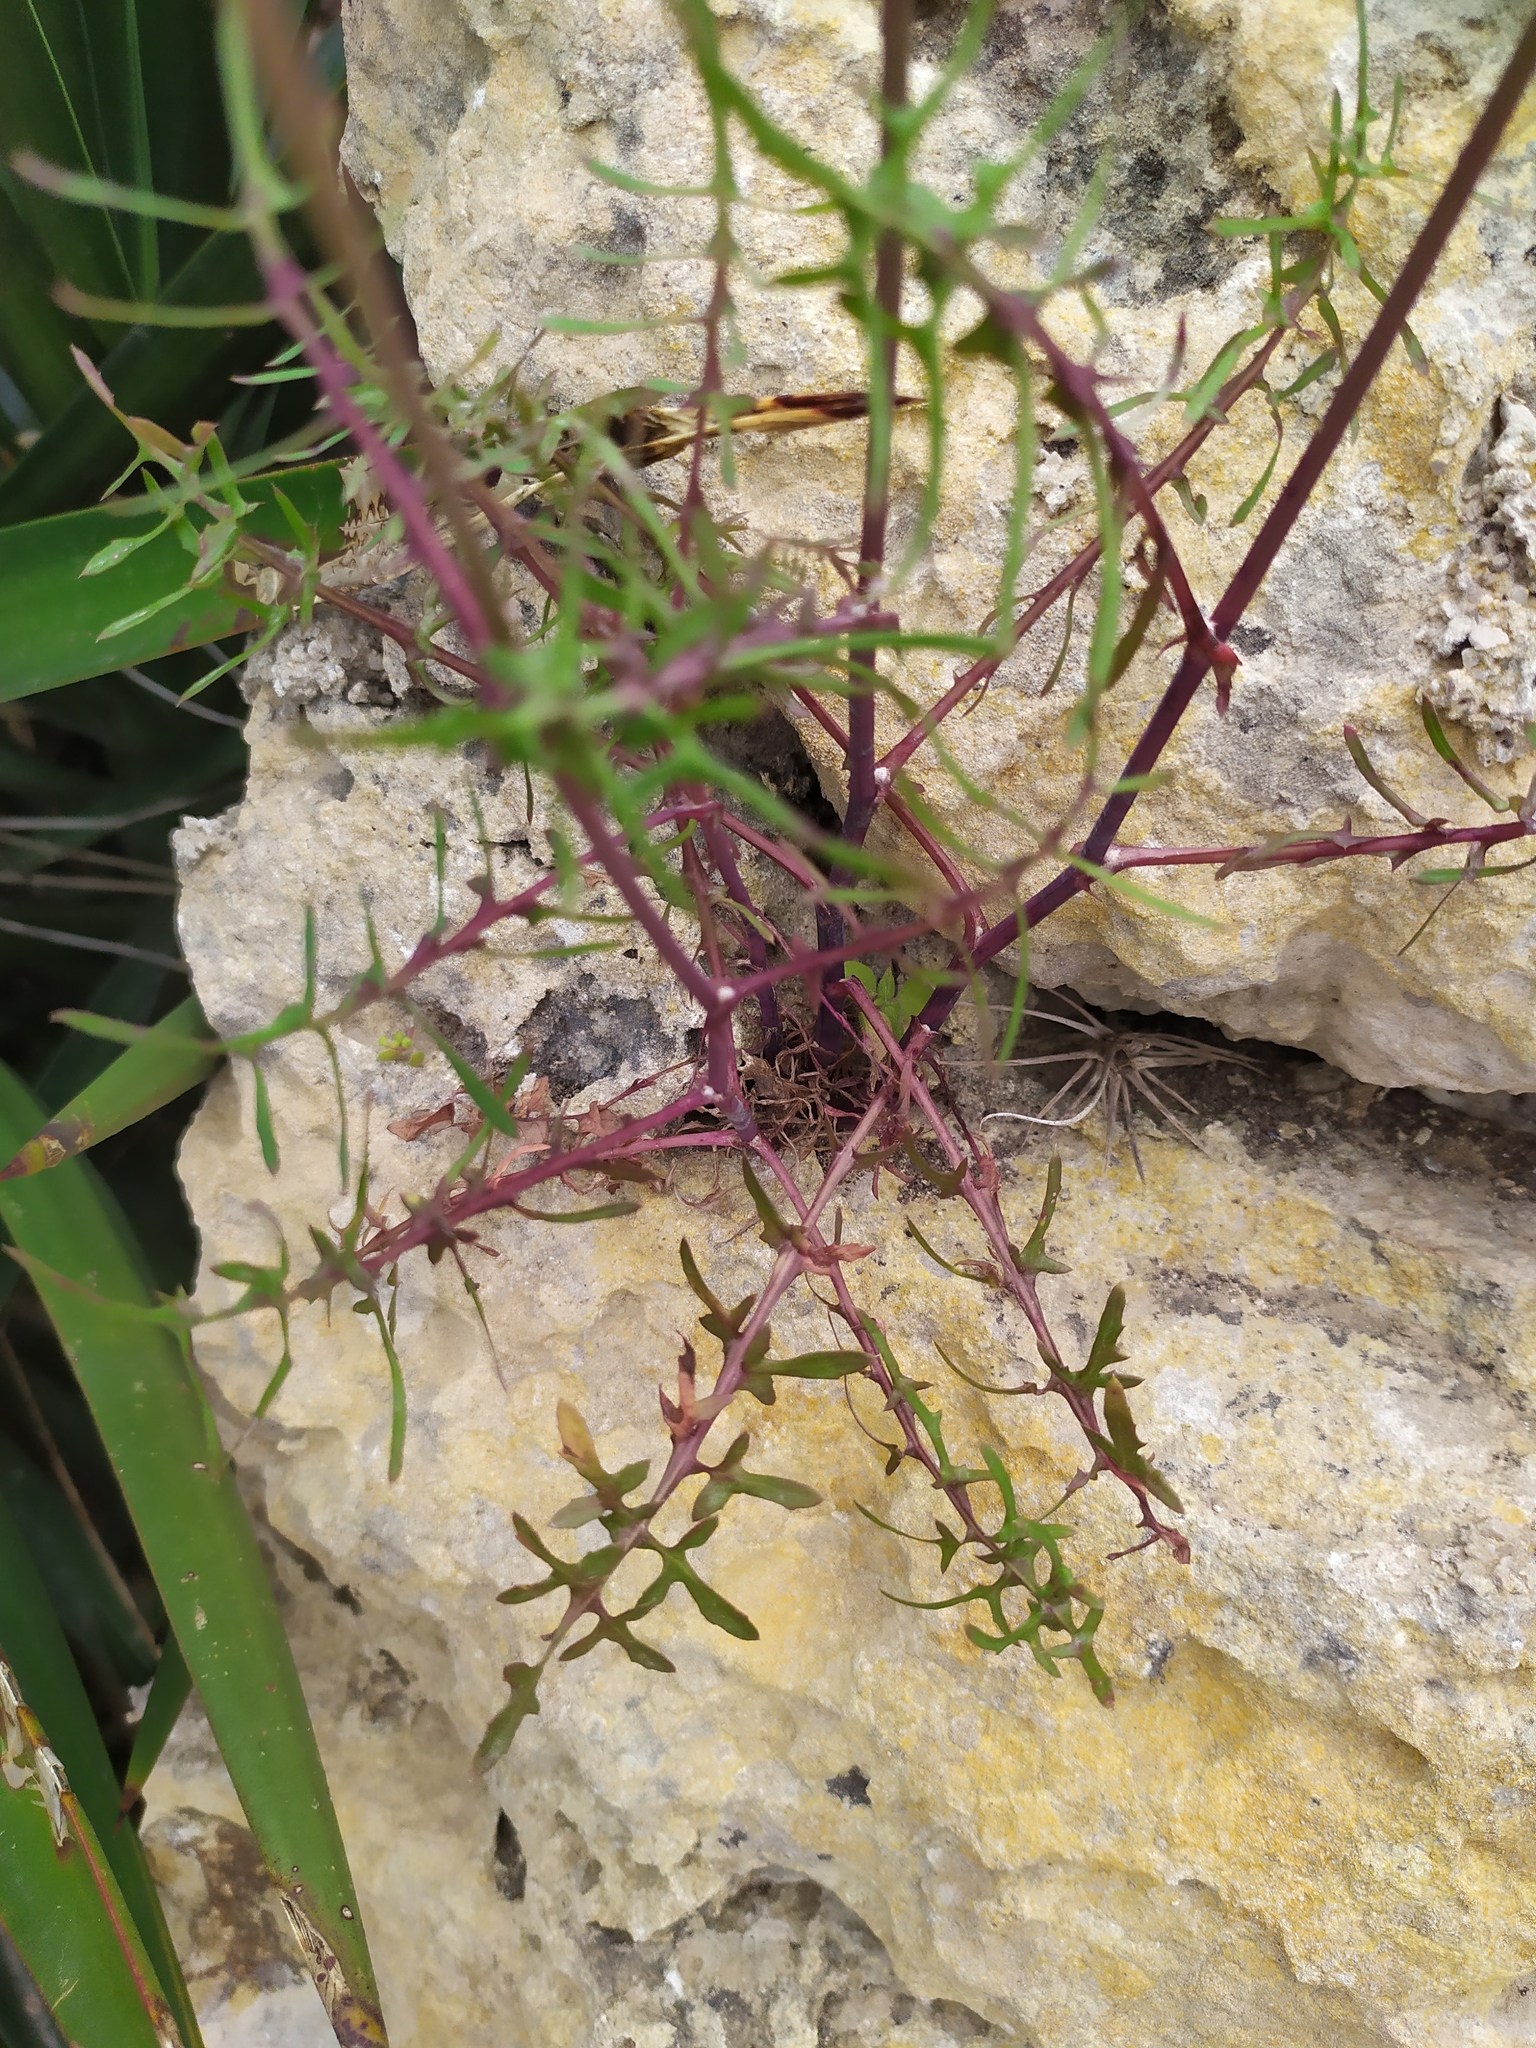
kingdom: Plantae
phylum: Tracheophyta
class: Magnoliopsida
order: Asterales
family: Asteraceae
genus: Sonchus
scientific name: Sonchus tenerrimus
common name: Clammy sowthistle
